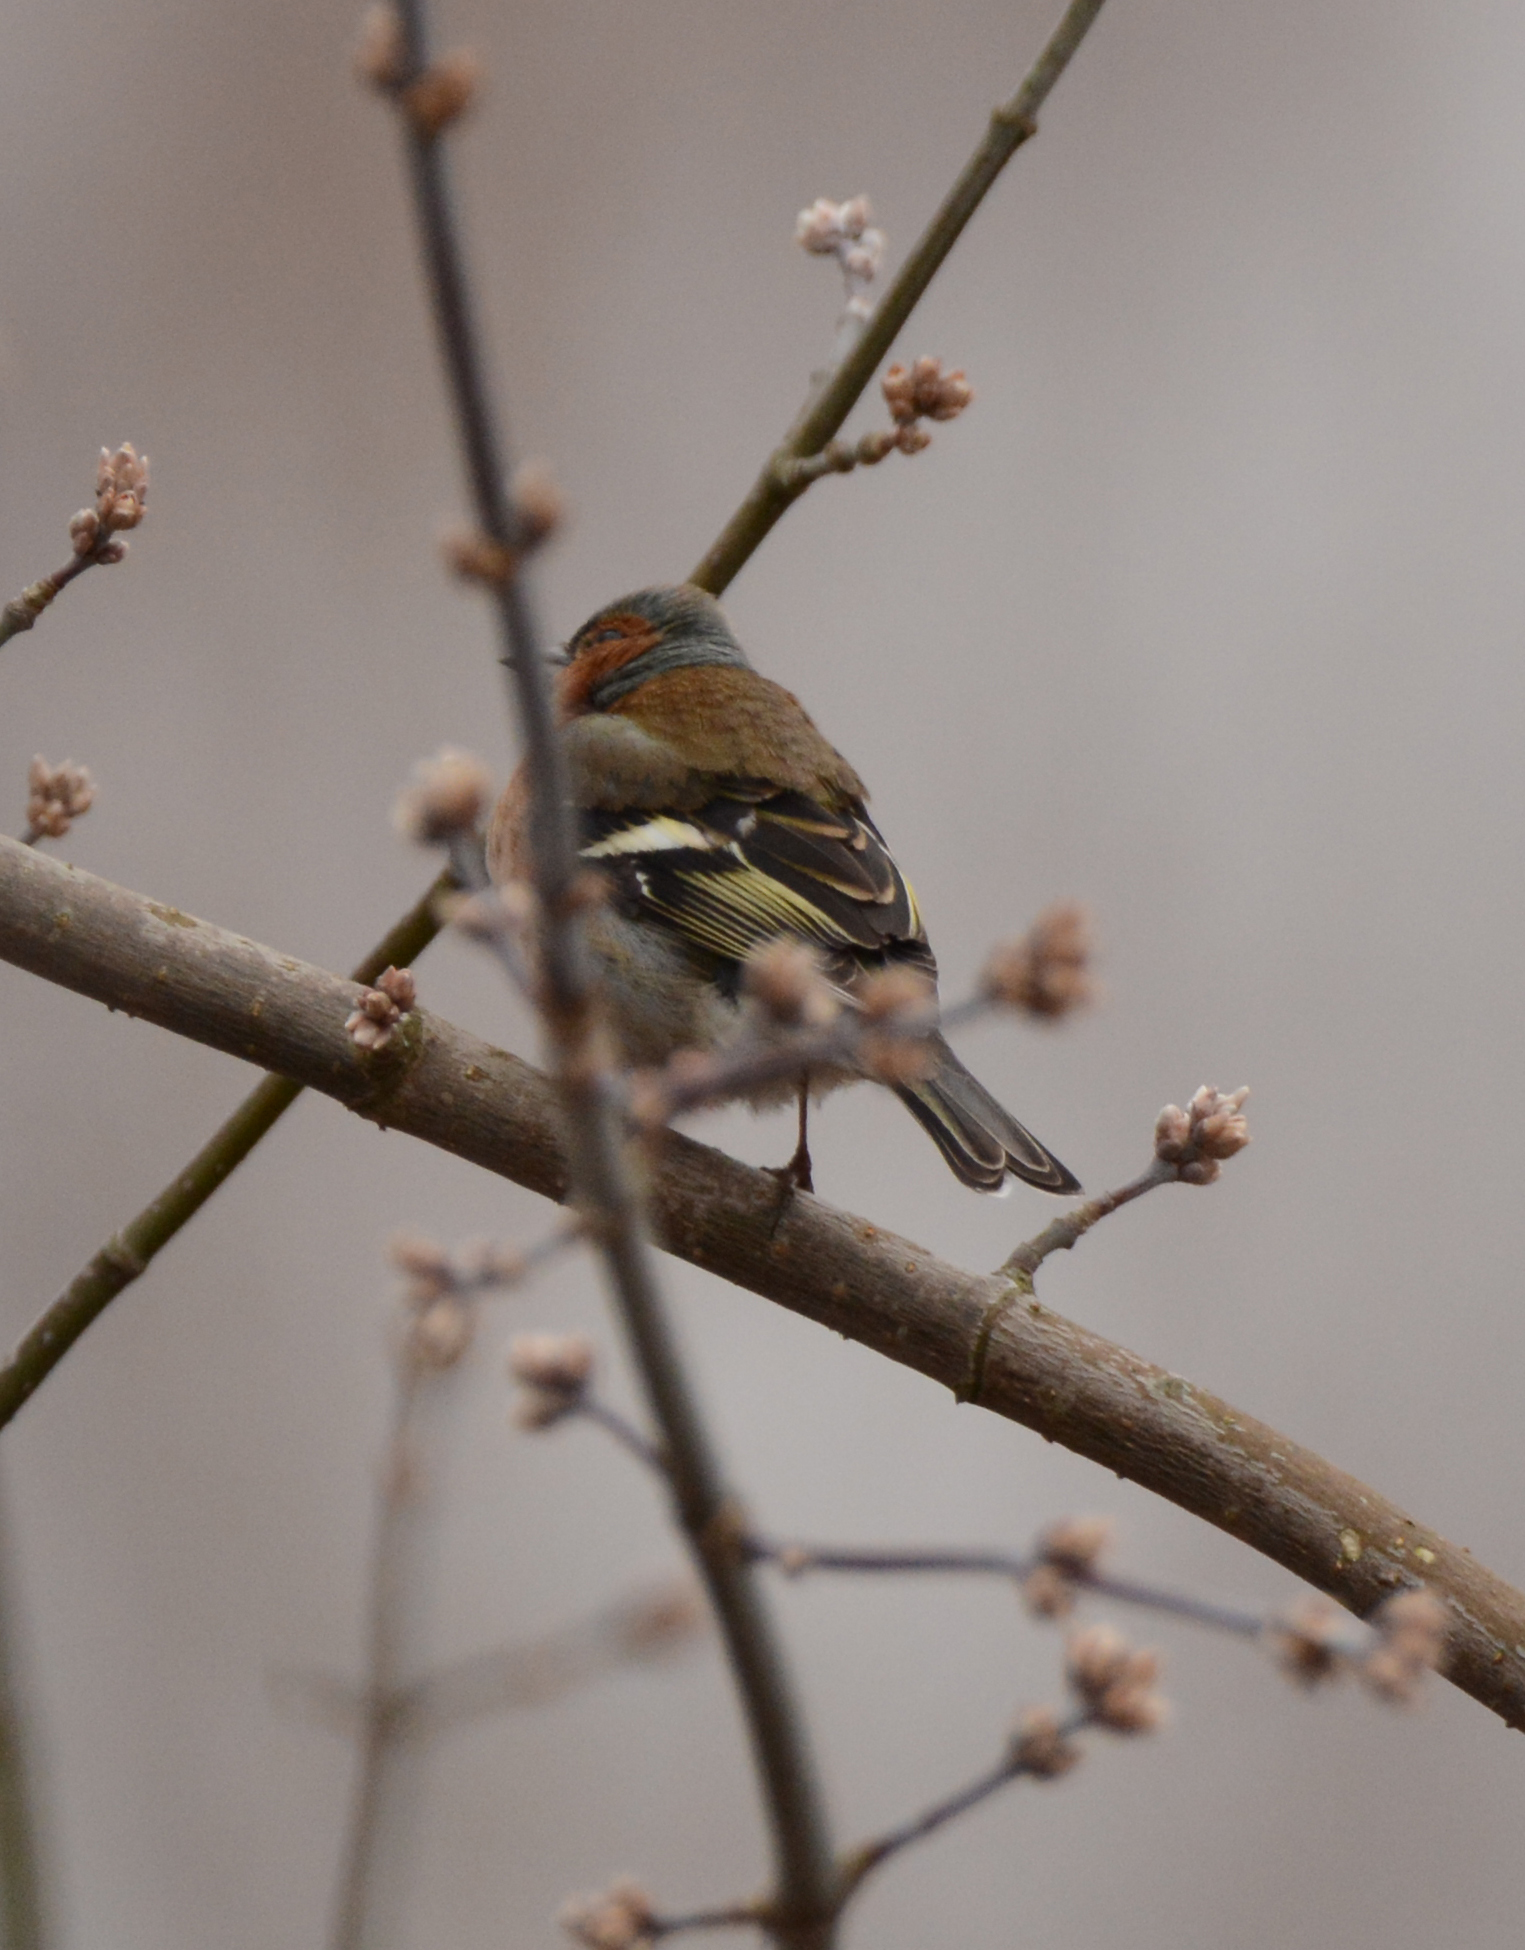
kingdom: Animalia
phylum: Chordata
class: Aves
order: Passeriformes
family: Fringillidae
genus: Fringilla
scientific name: Fringilla coelebs
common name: Common chaffinch
